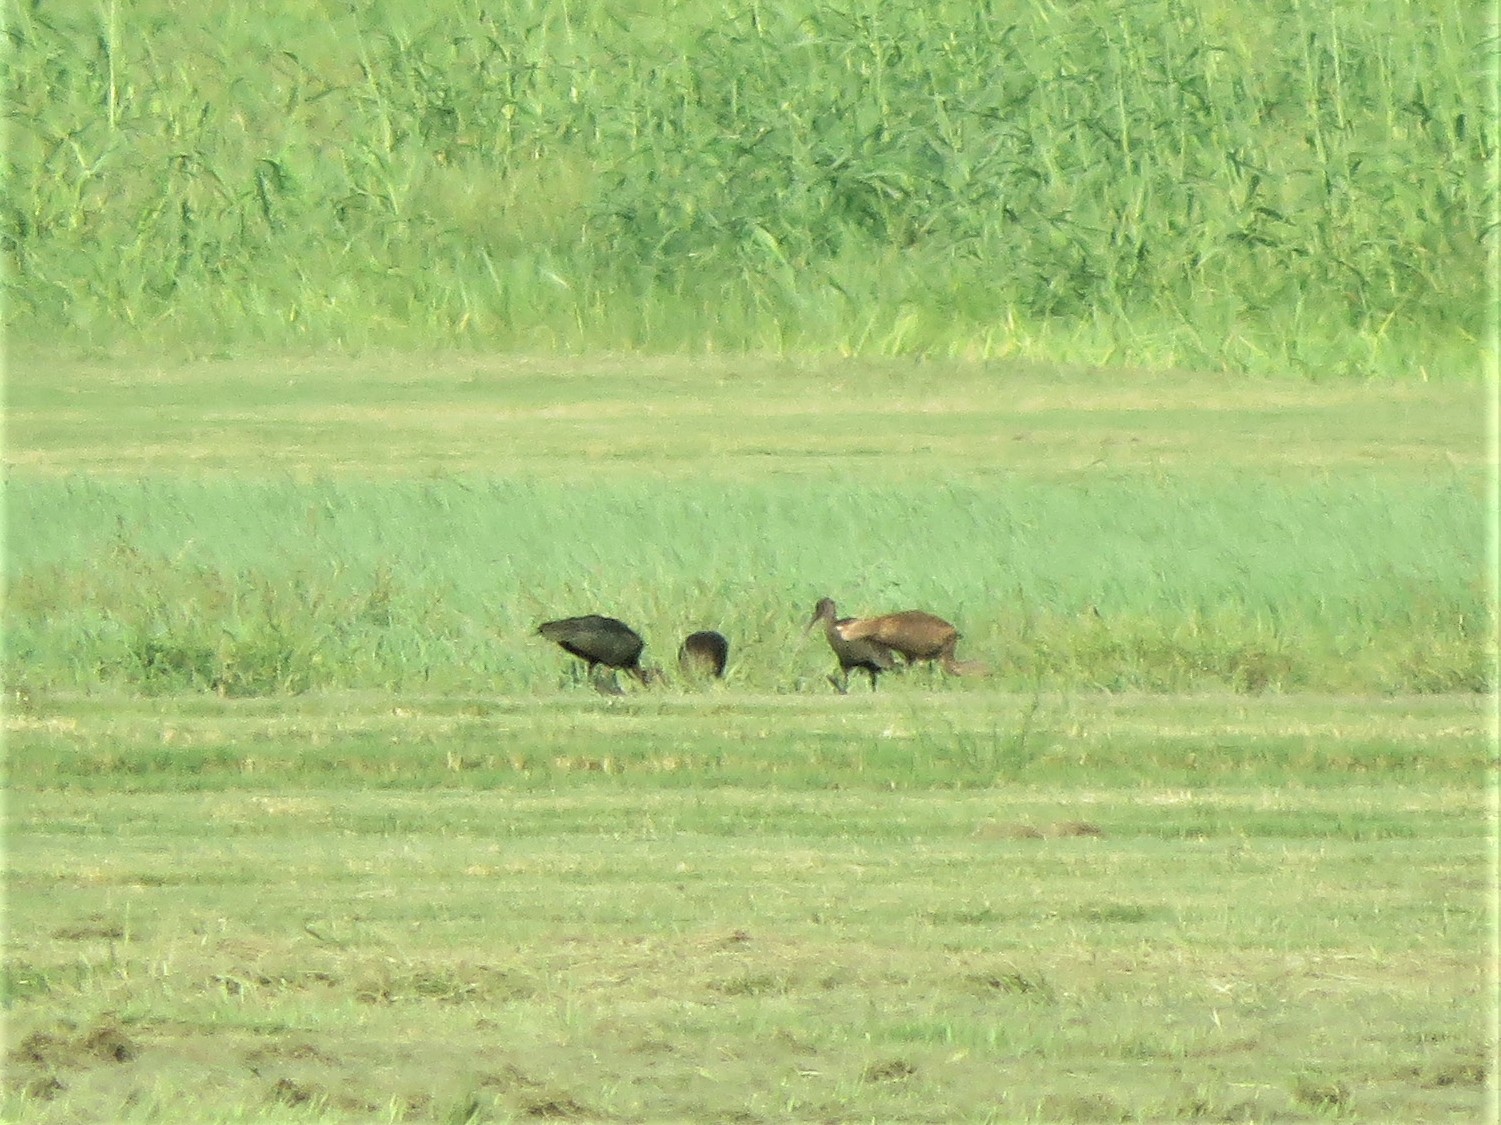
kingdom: Animalia
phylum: Chordata
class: Aves
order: Pelecaniformes
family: Threskiornithidae
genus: Plegadis
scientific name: Plegadis chihi
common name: White-faced ibis
